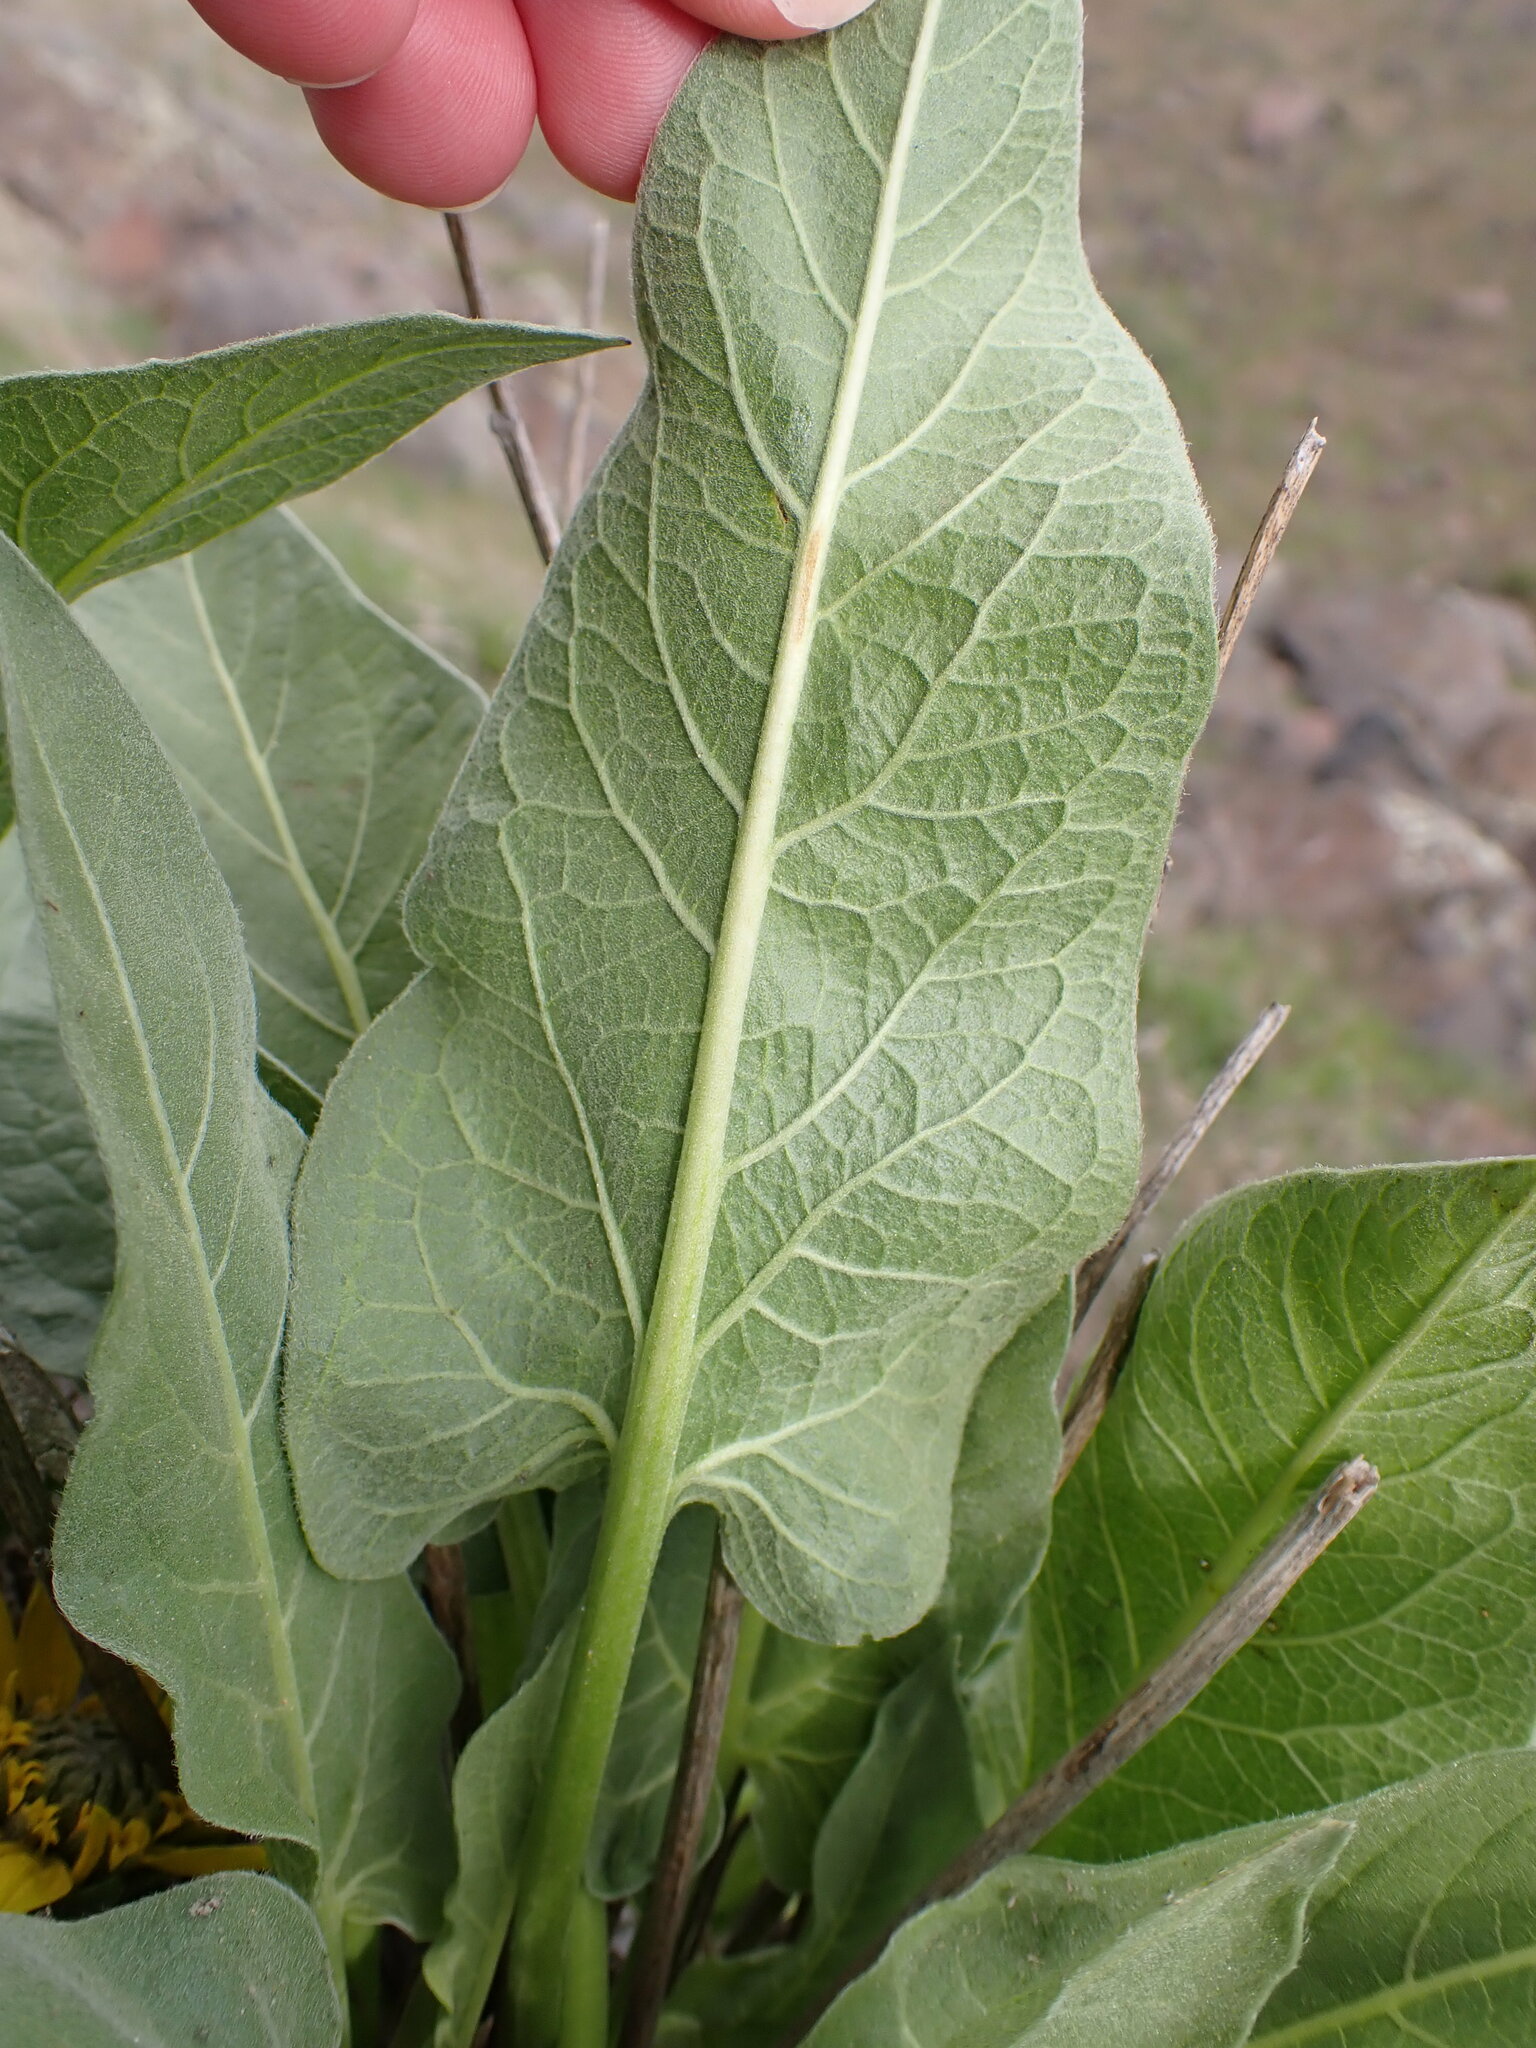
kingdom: Plantae
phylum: Tracheophyta
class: Magnoliopsida
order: Asterales
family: Asteraceae
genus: Balsamorhiza
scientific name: Balsamorhiza careyana
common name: Carey's balsamroot
